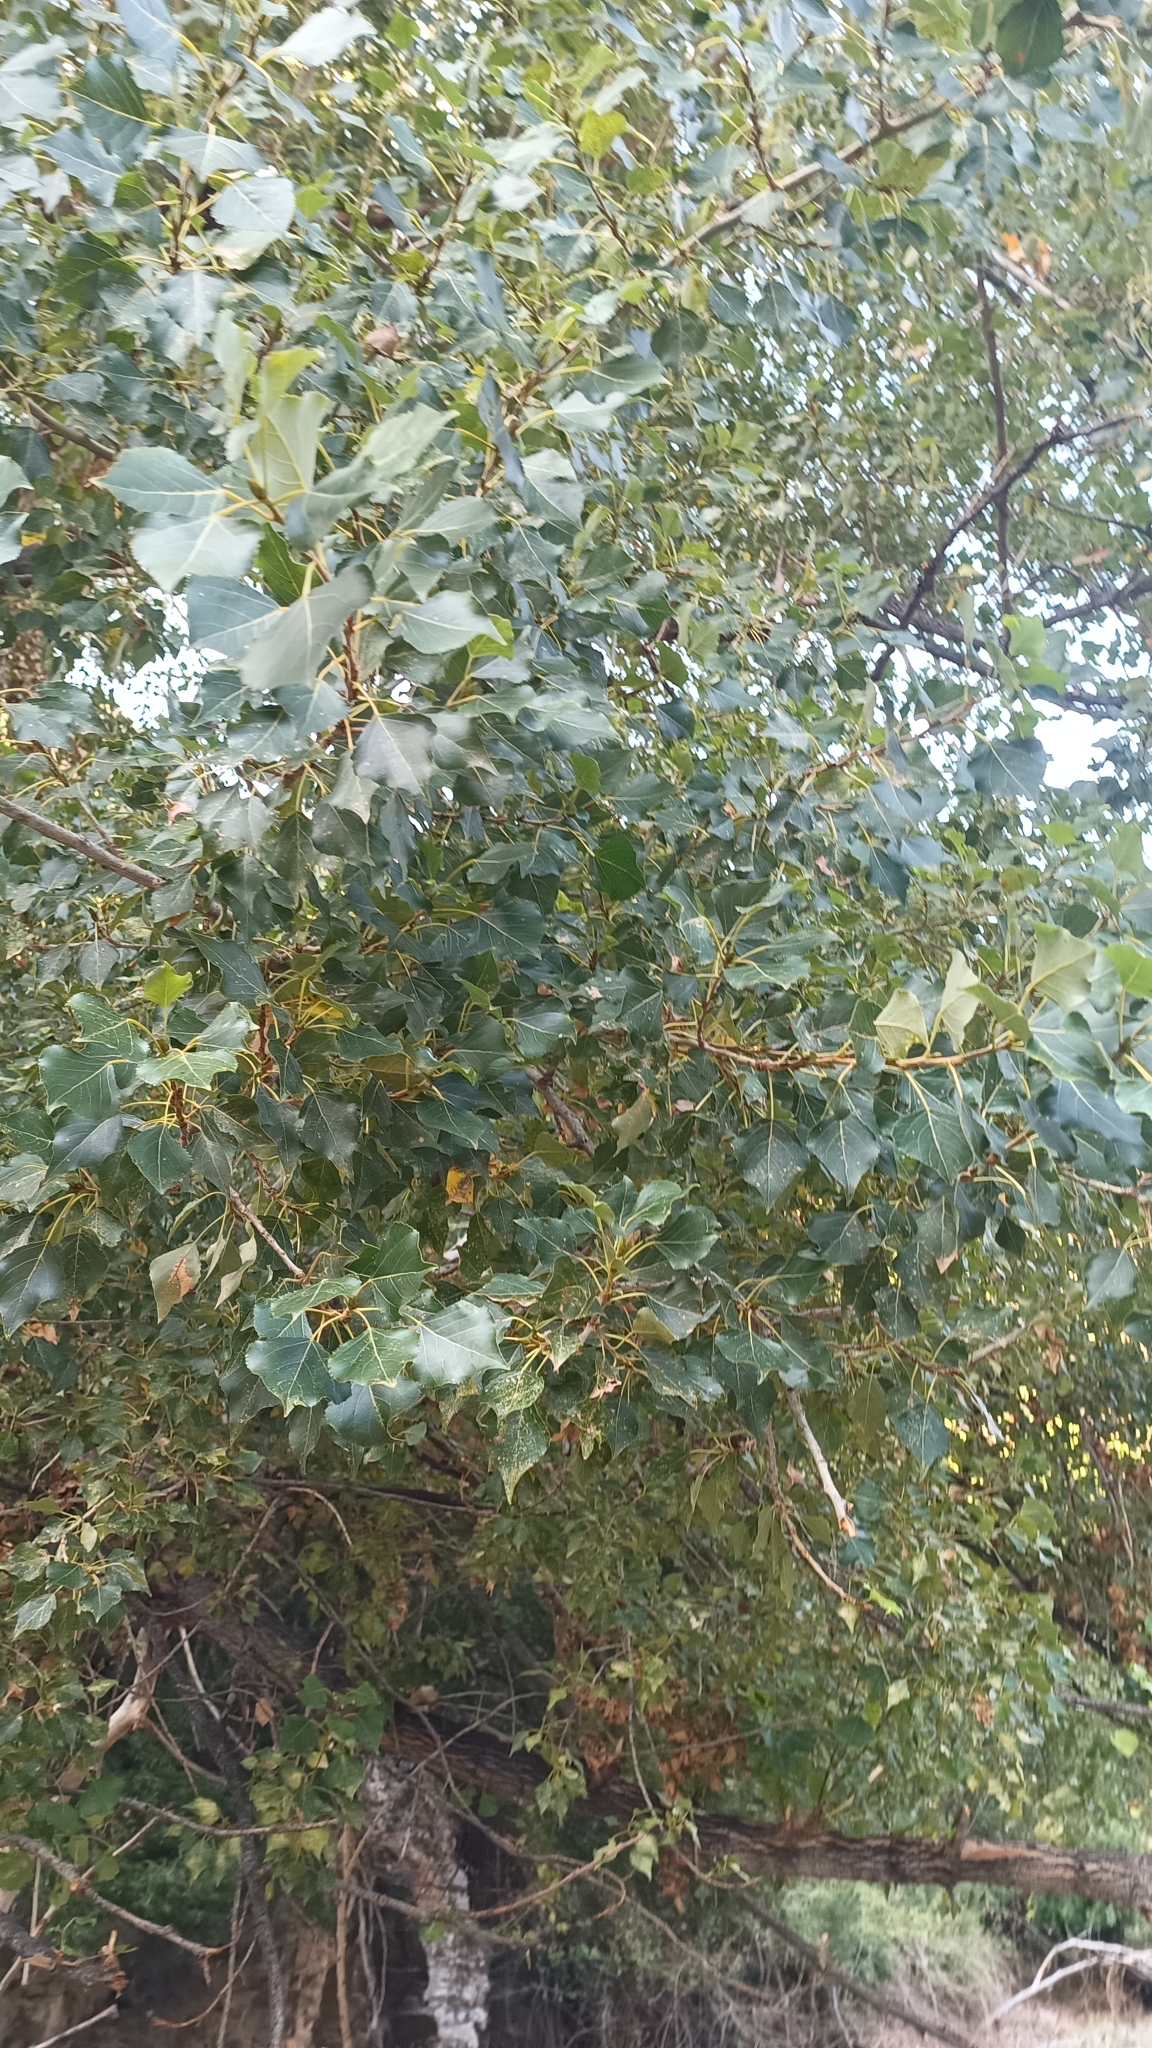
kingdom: Plantae
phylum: Tracheophyta
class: Magnoliopsida
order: Malpighiales
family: Salicaceae
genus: Populus
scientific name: Populus nigra
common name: Black poplar
